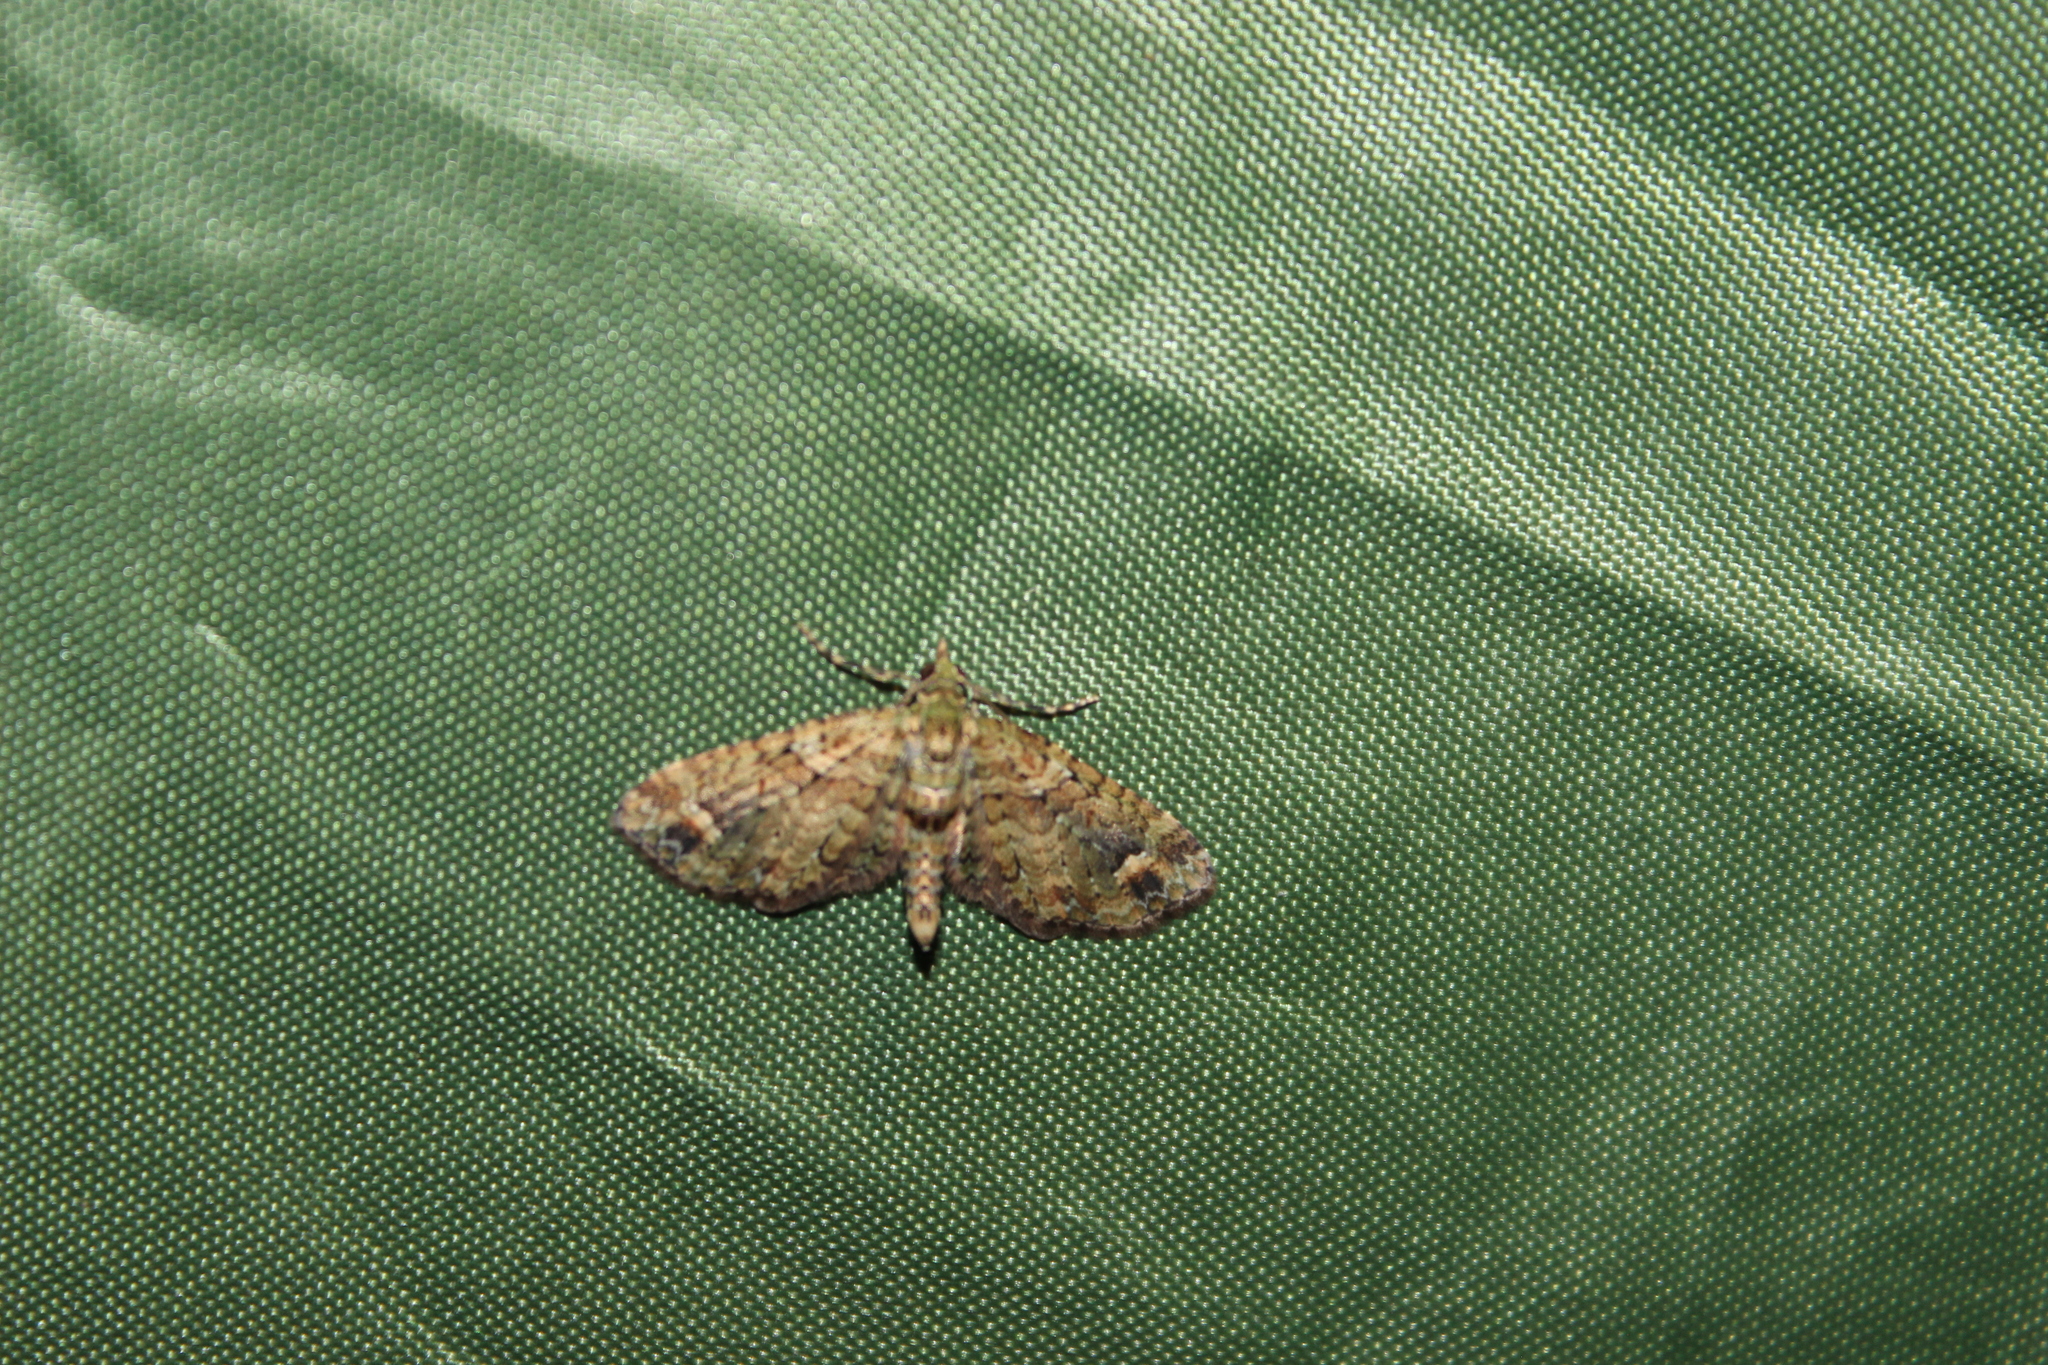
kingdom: Animalia
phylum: Arthropoda
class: Insecta
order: Lepidoptera
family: Geometridae
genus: Idaea
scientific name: Idaea mutanda
